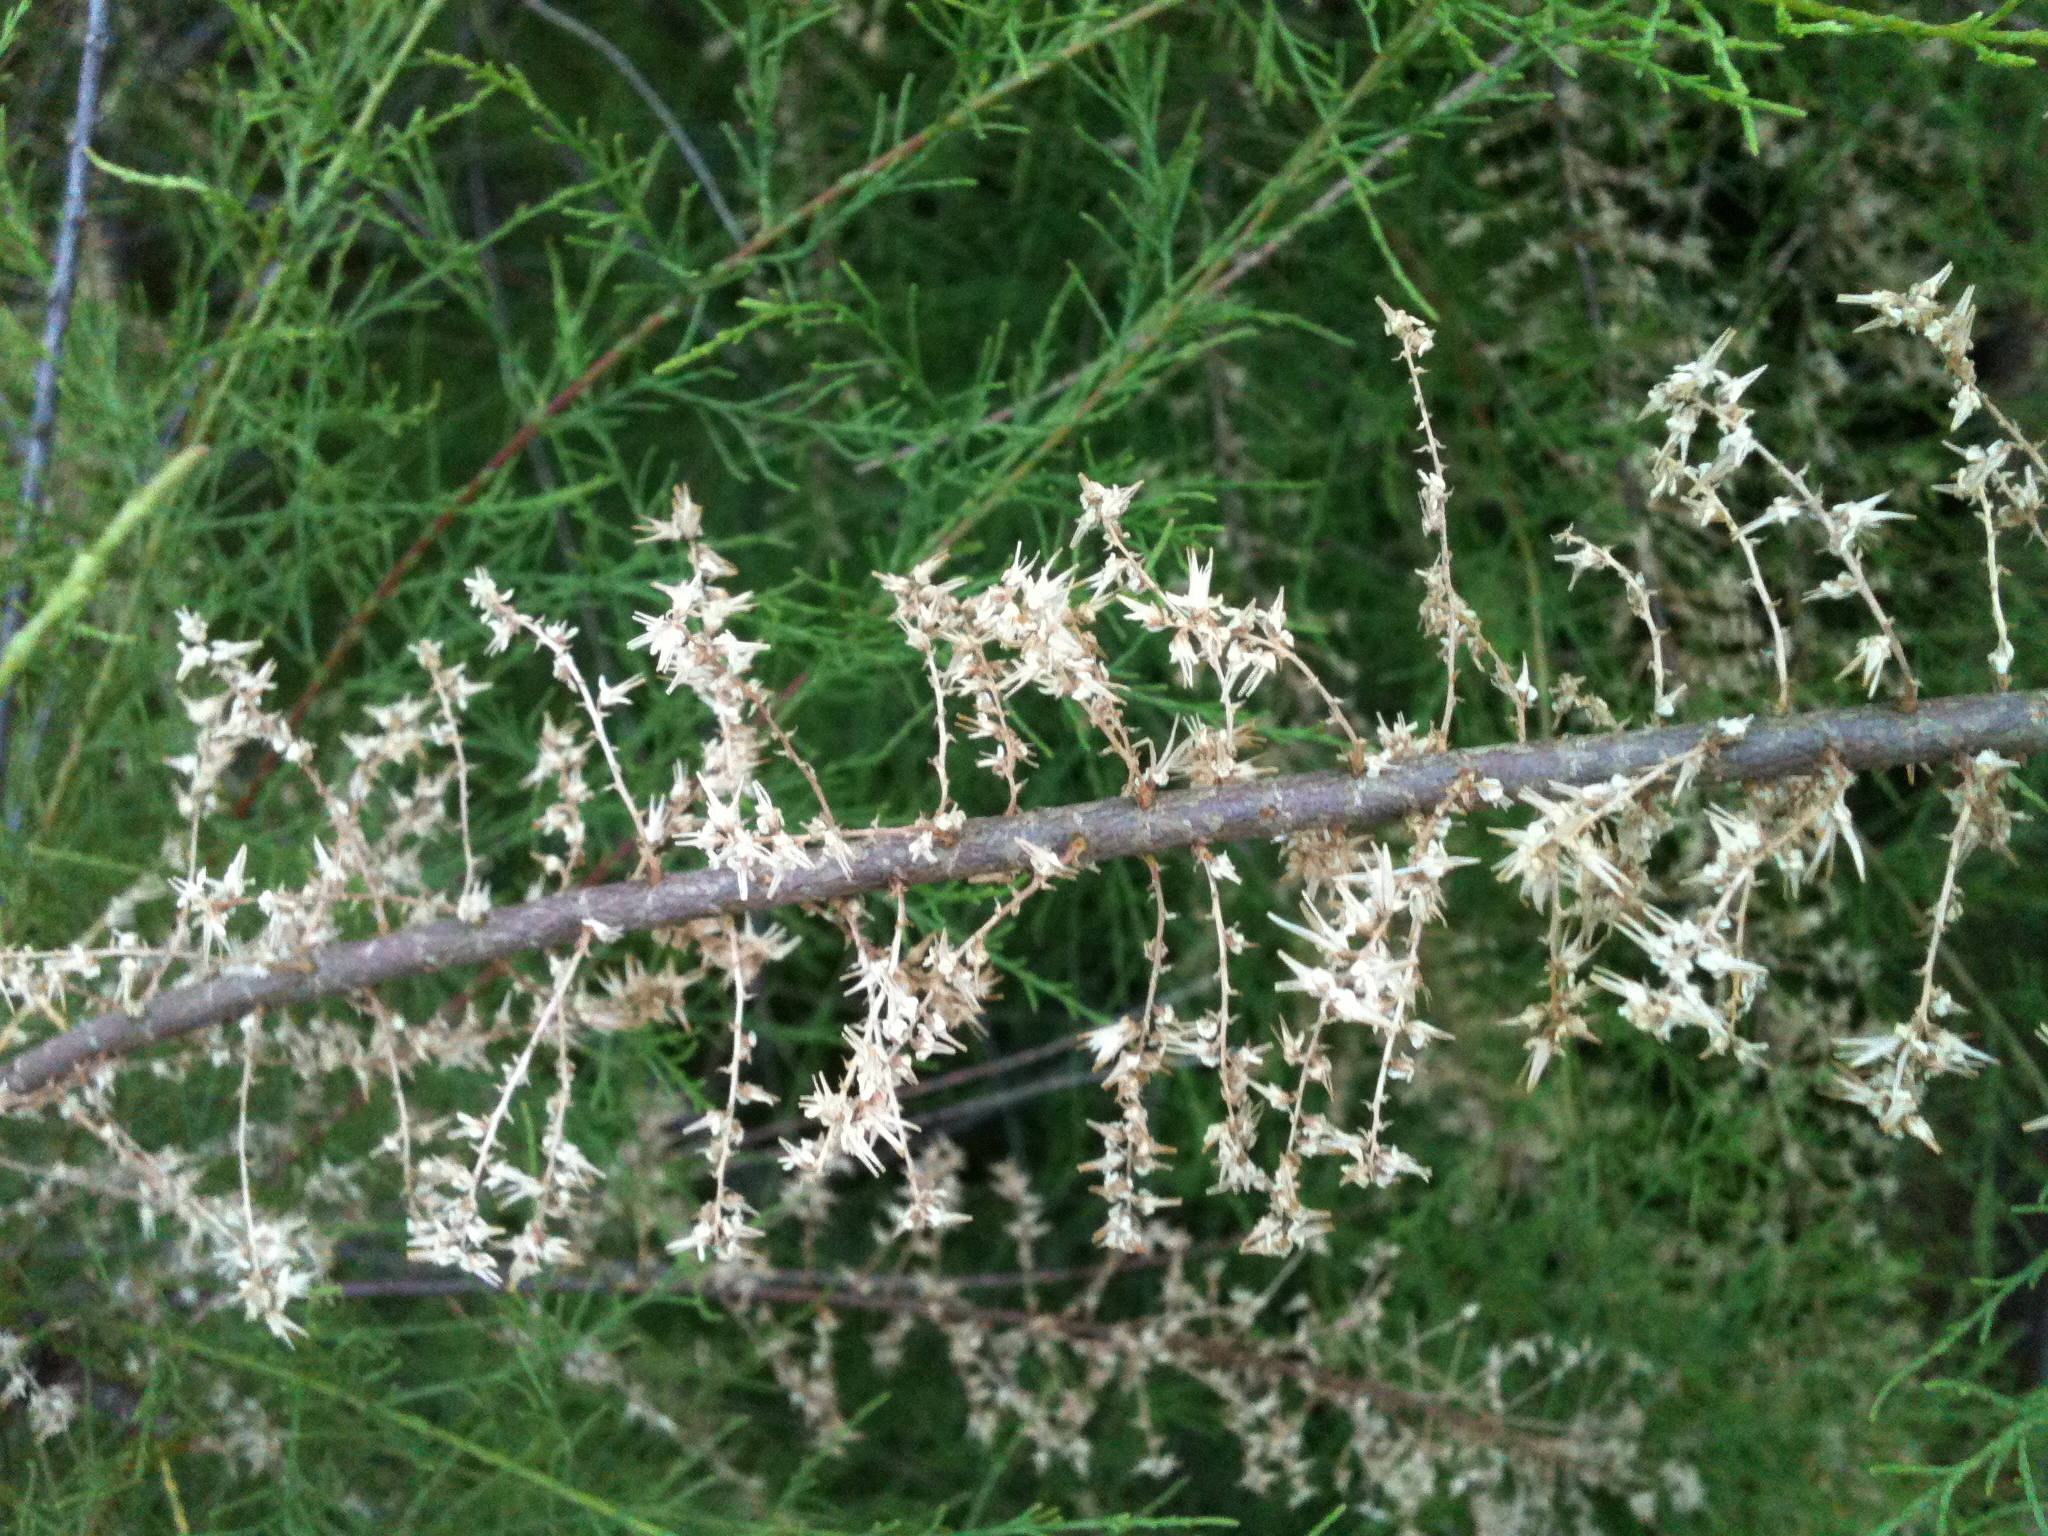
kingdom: Plantae
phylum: Tracheophyta
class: Magnoliopsida
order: Caryophyllales
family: Tamaricaceae
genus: Tamarix
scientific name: Tamarix
